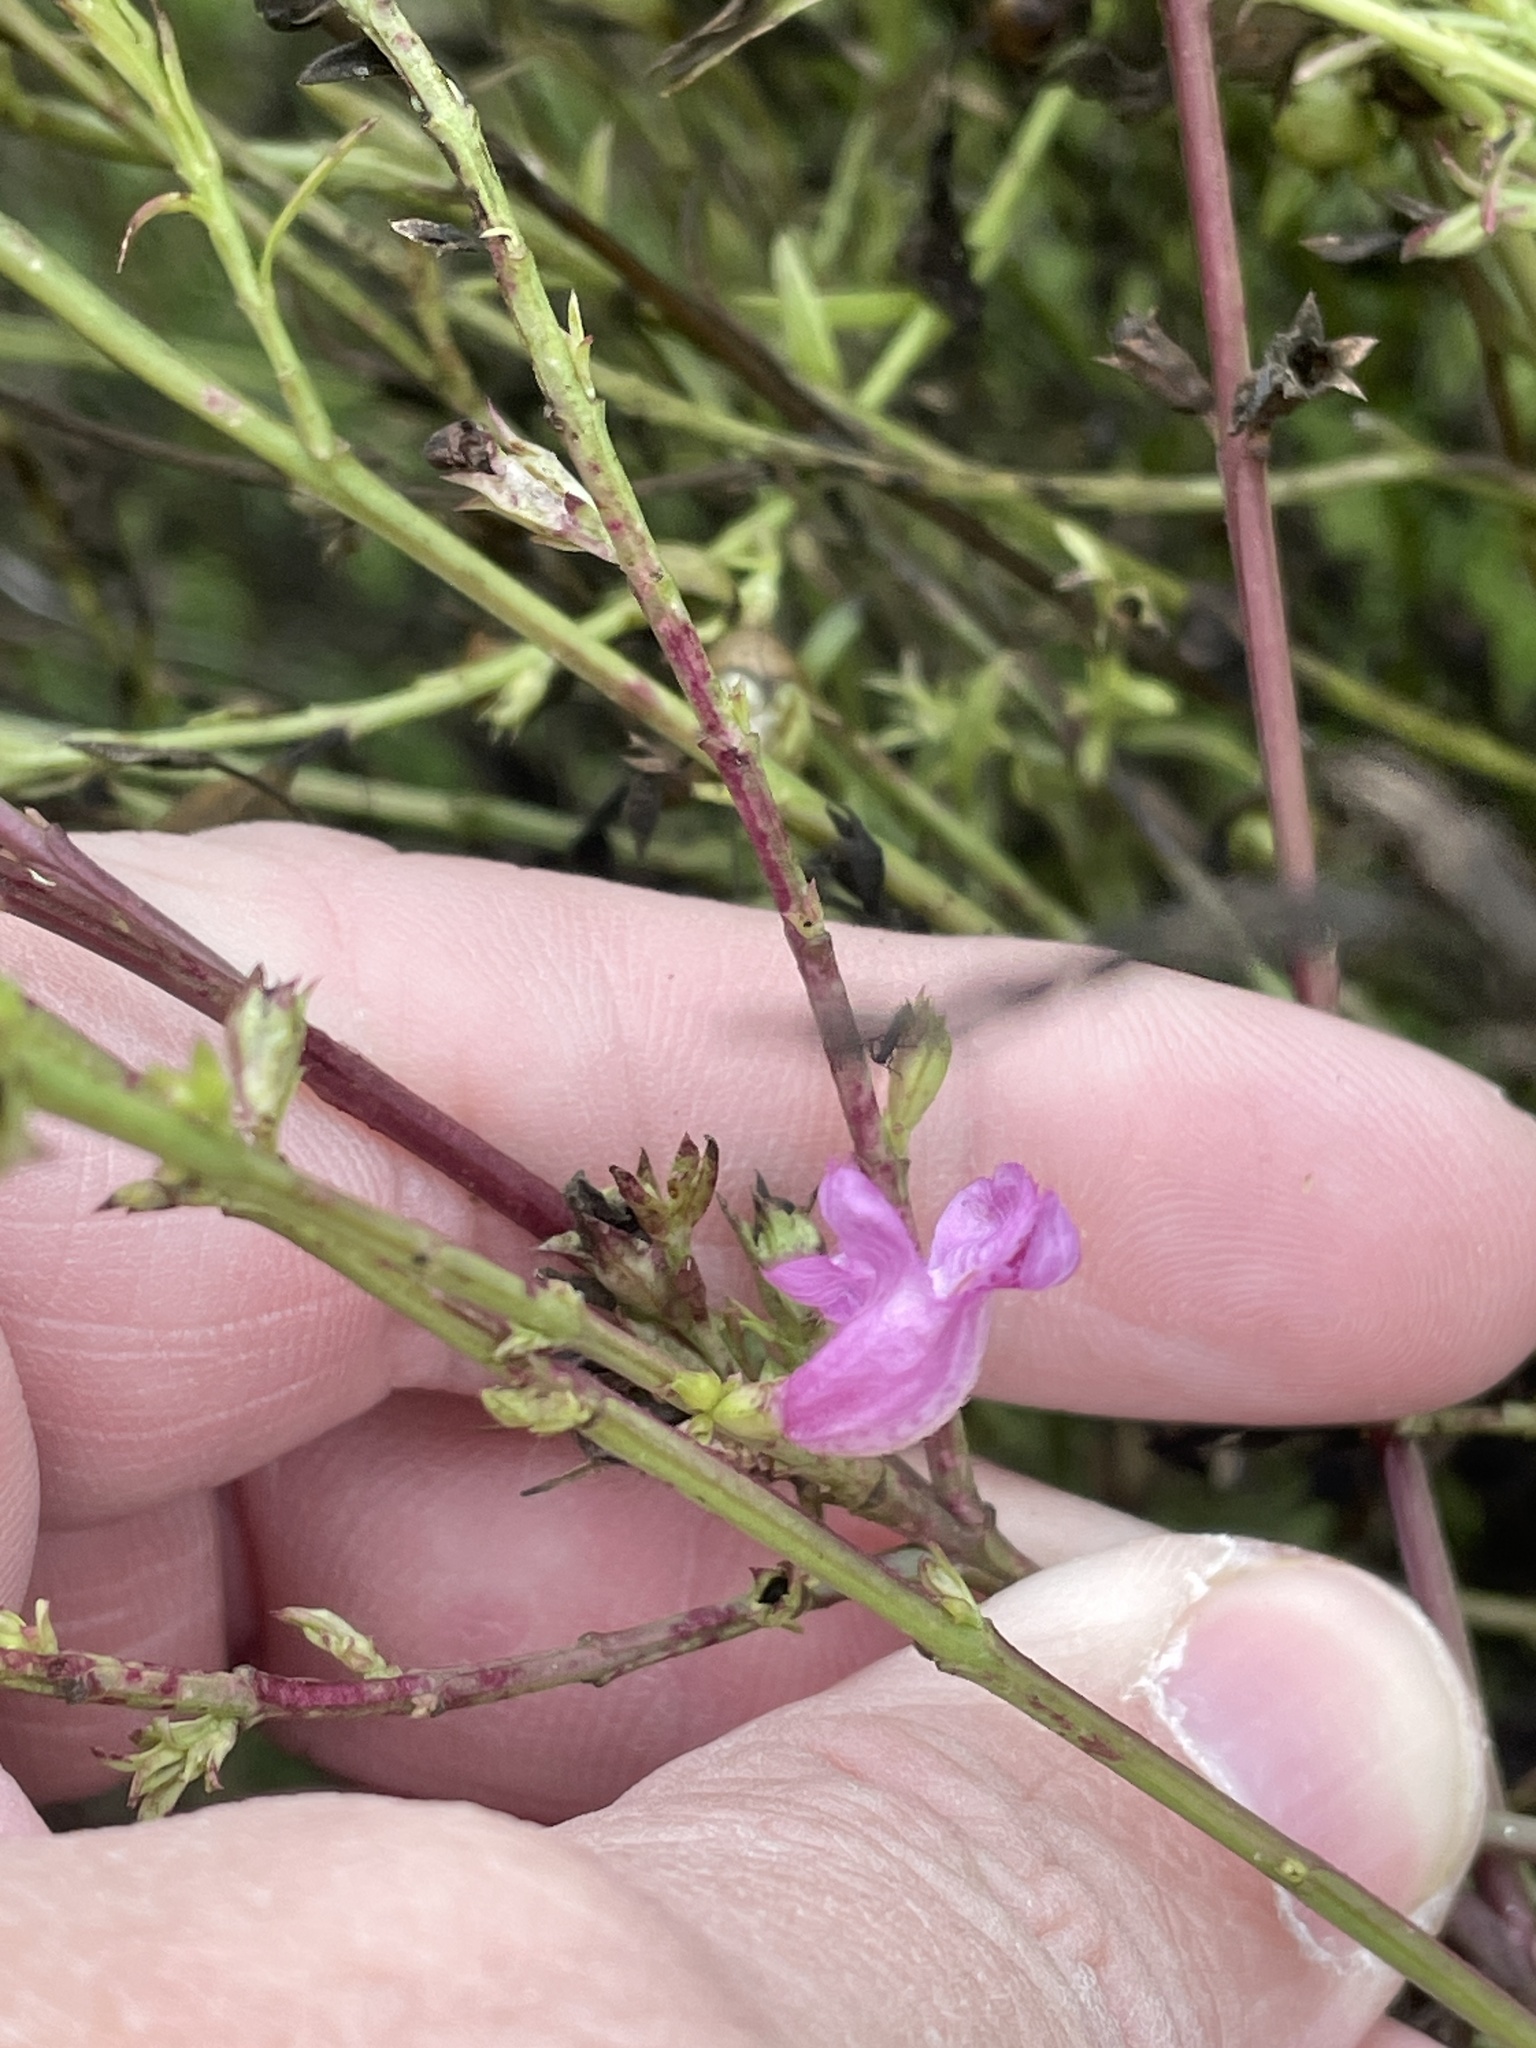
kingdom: Plantae
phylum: Tracheophyta
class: Magnoliopsida
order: Lamiales
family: Orobanchaceae
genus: Agalinis
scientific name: Agalinis heterophylla
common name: Prairie agalinis
